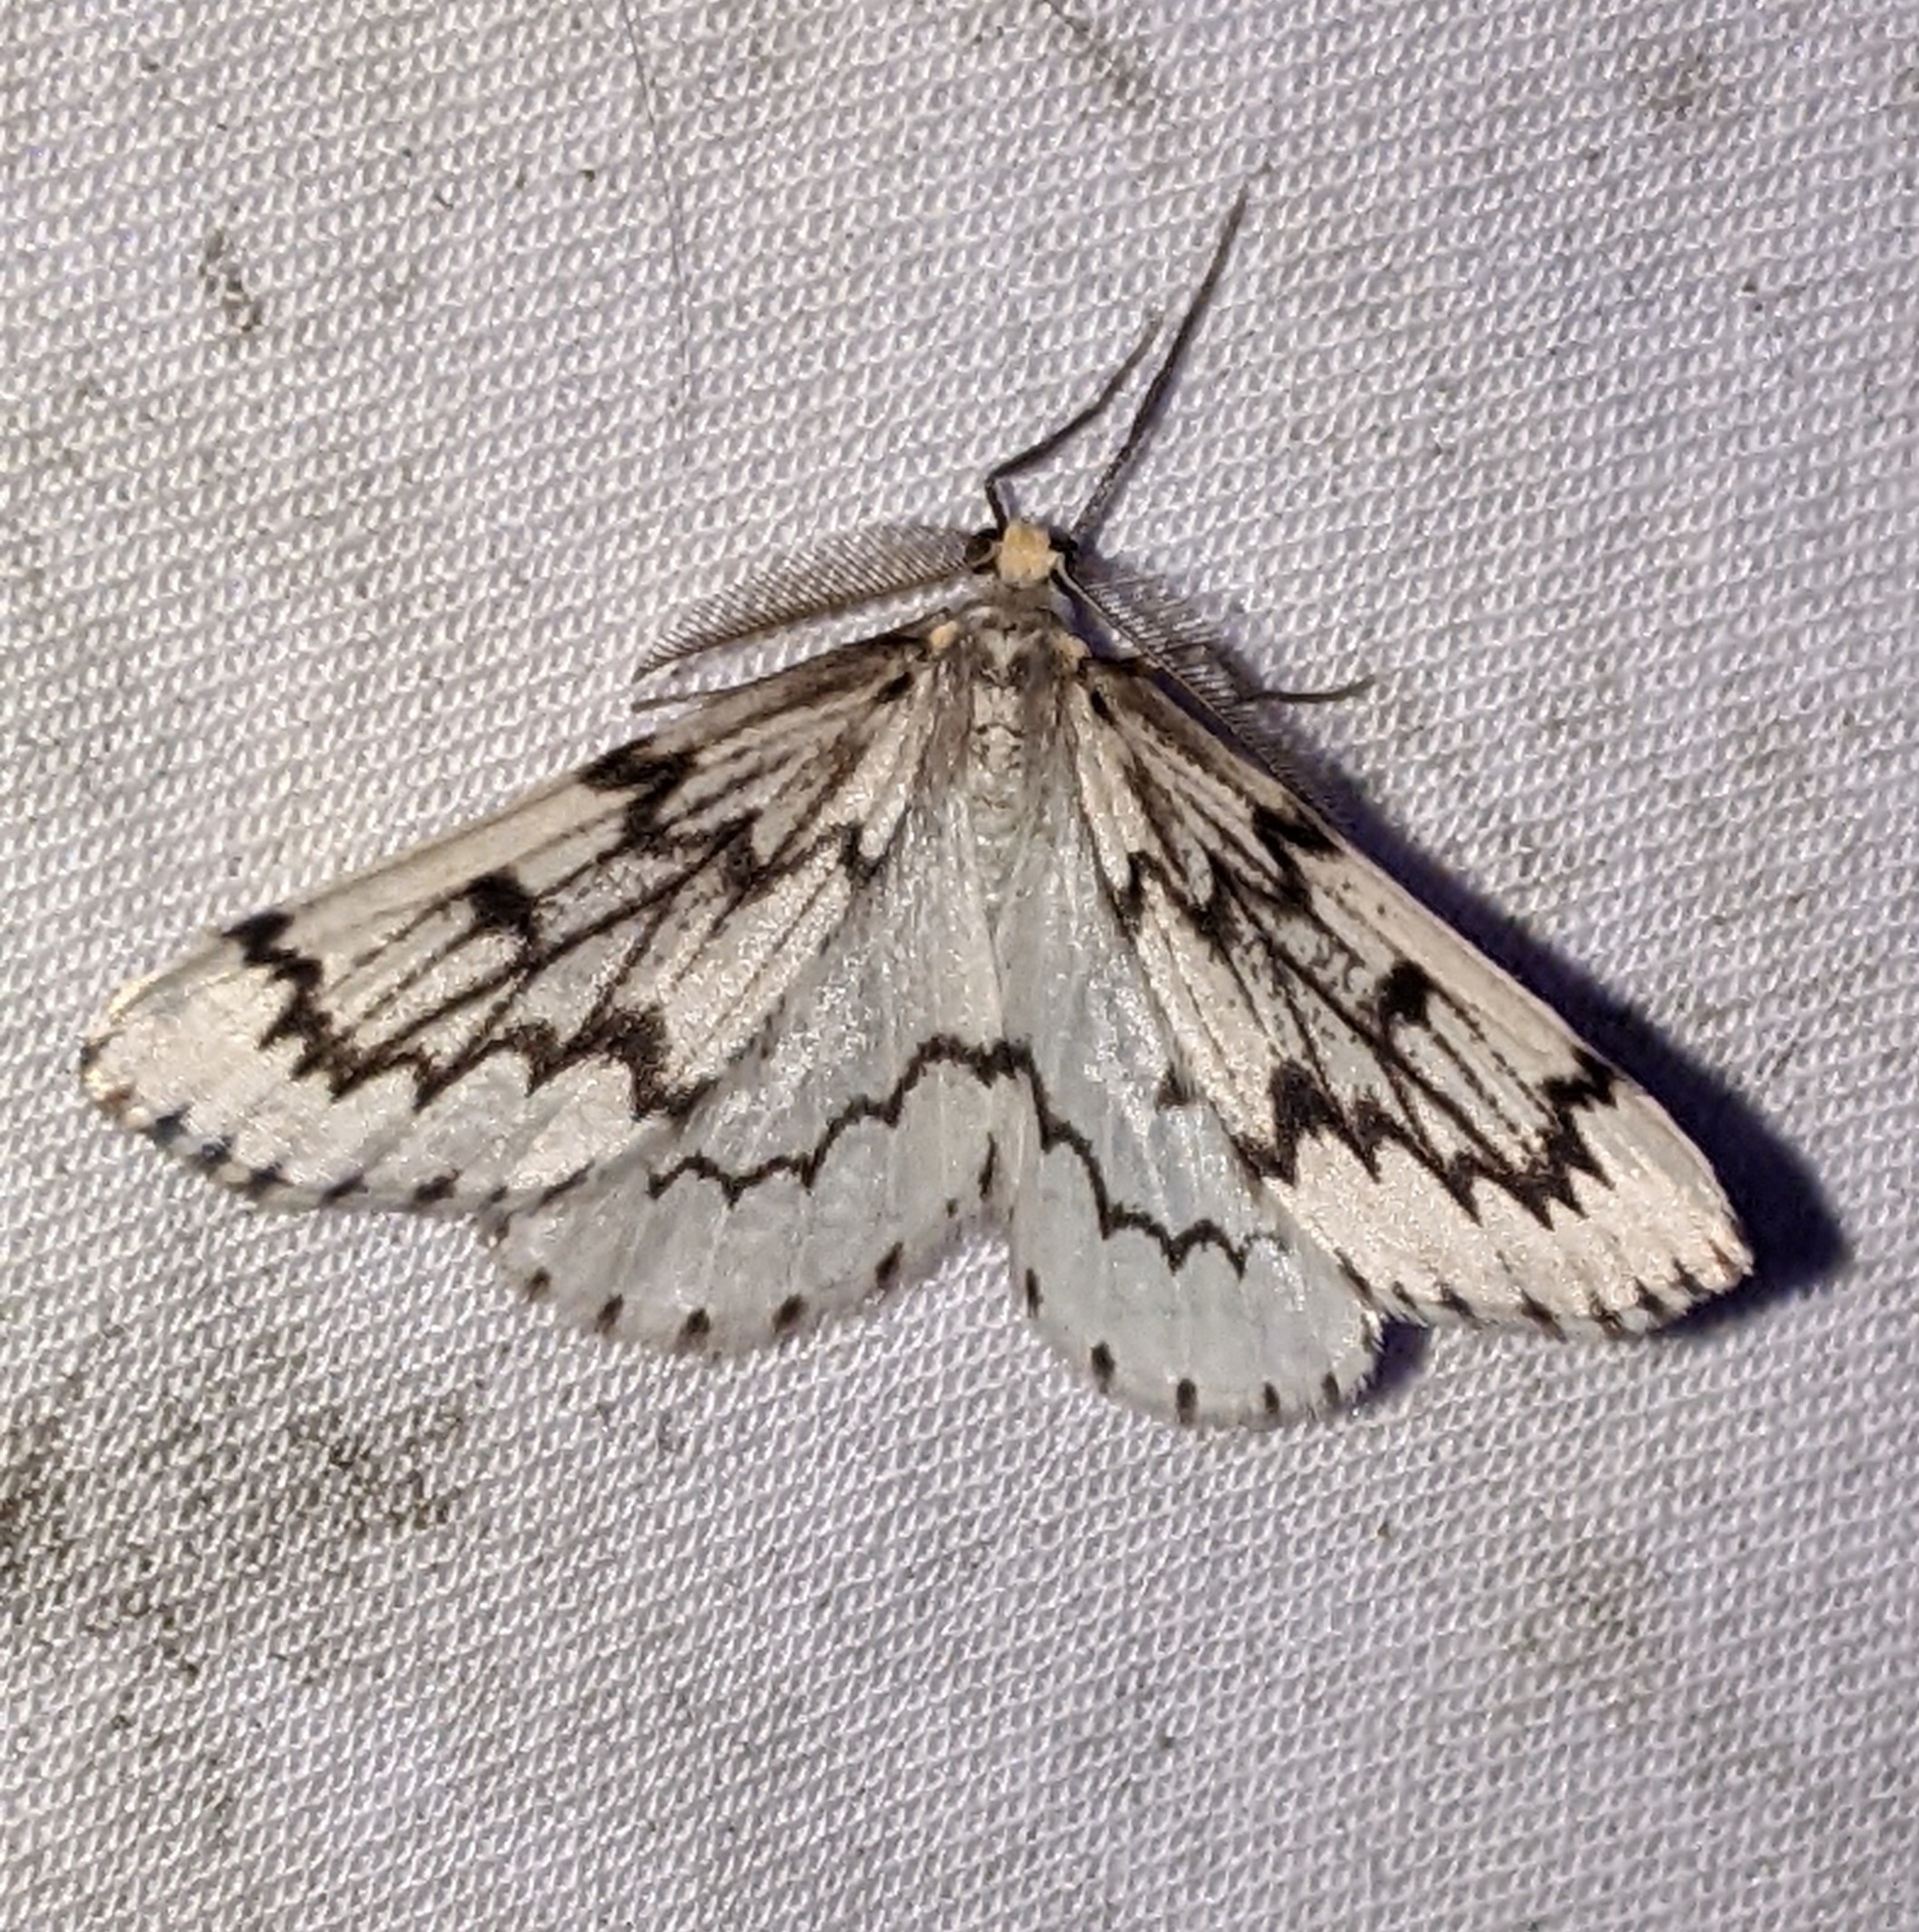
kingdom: Animalia
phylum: Arthropoda
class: Insecta
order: Lepidoptera
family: Geometridae
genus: Nepytia
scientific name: Nepytia phantasmaria
